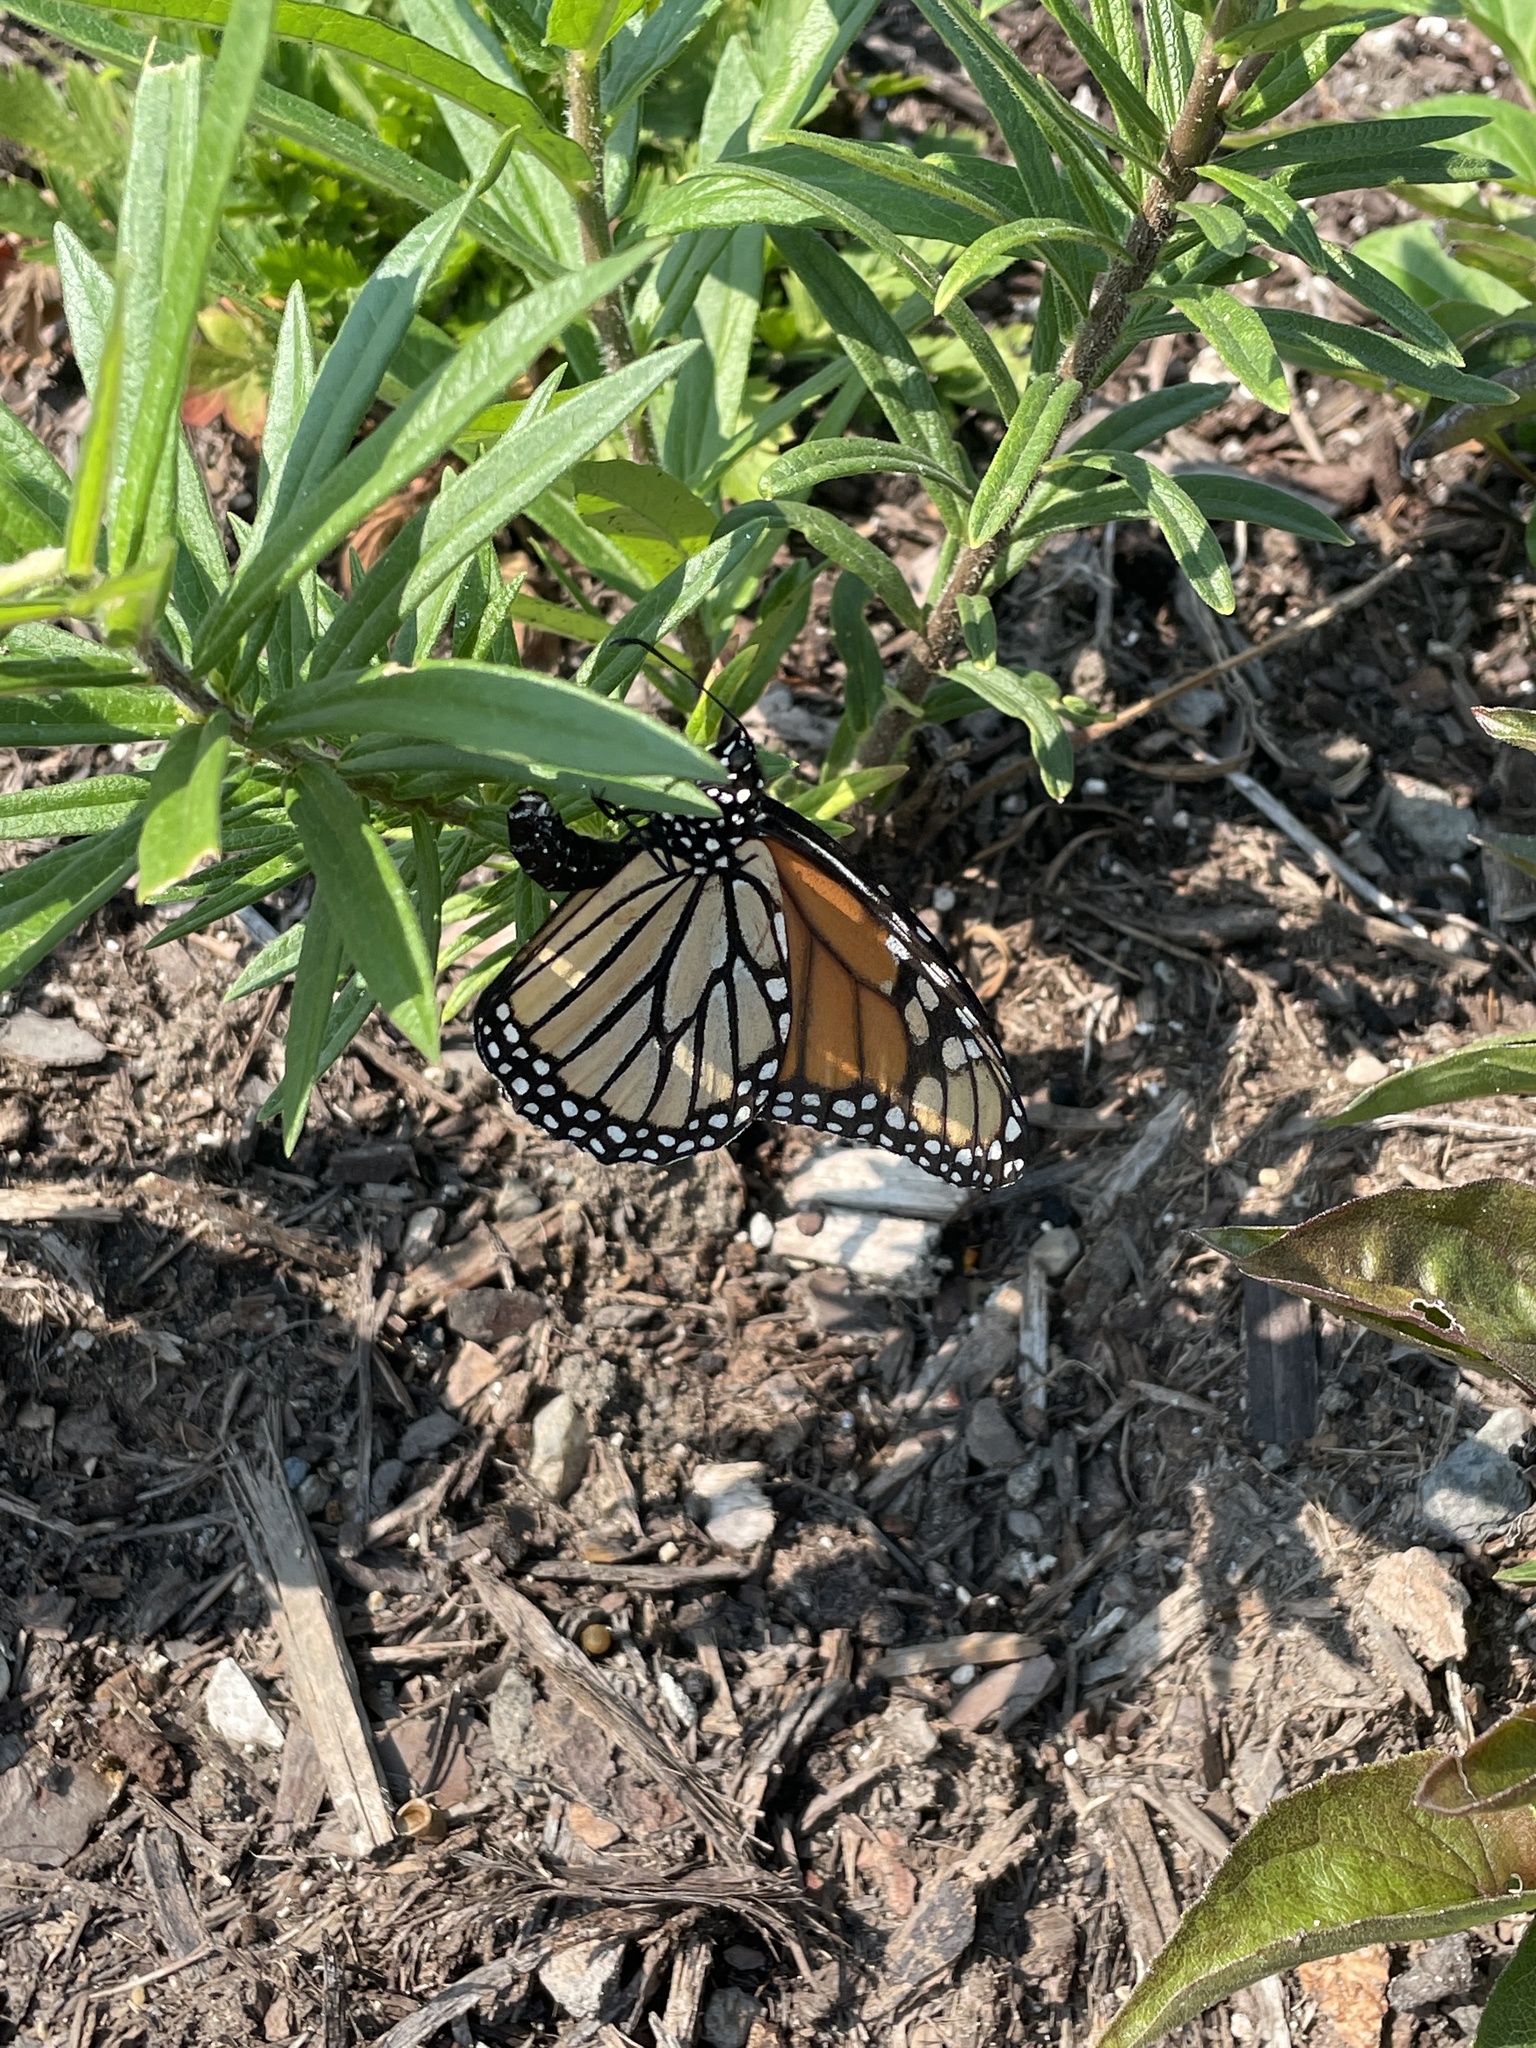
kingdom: Animalia
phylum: Arthropoda
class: Insecta
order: Lepidoptera
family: Nymphalidae
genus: Danaus
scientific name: Danaus plexippus
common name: Monarch
